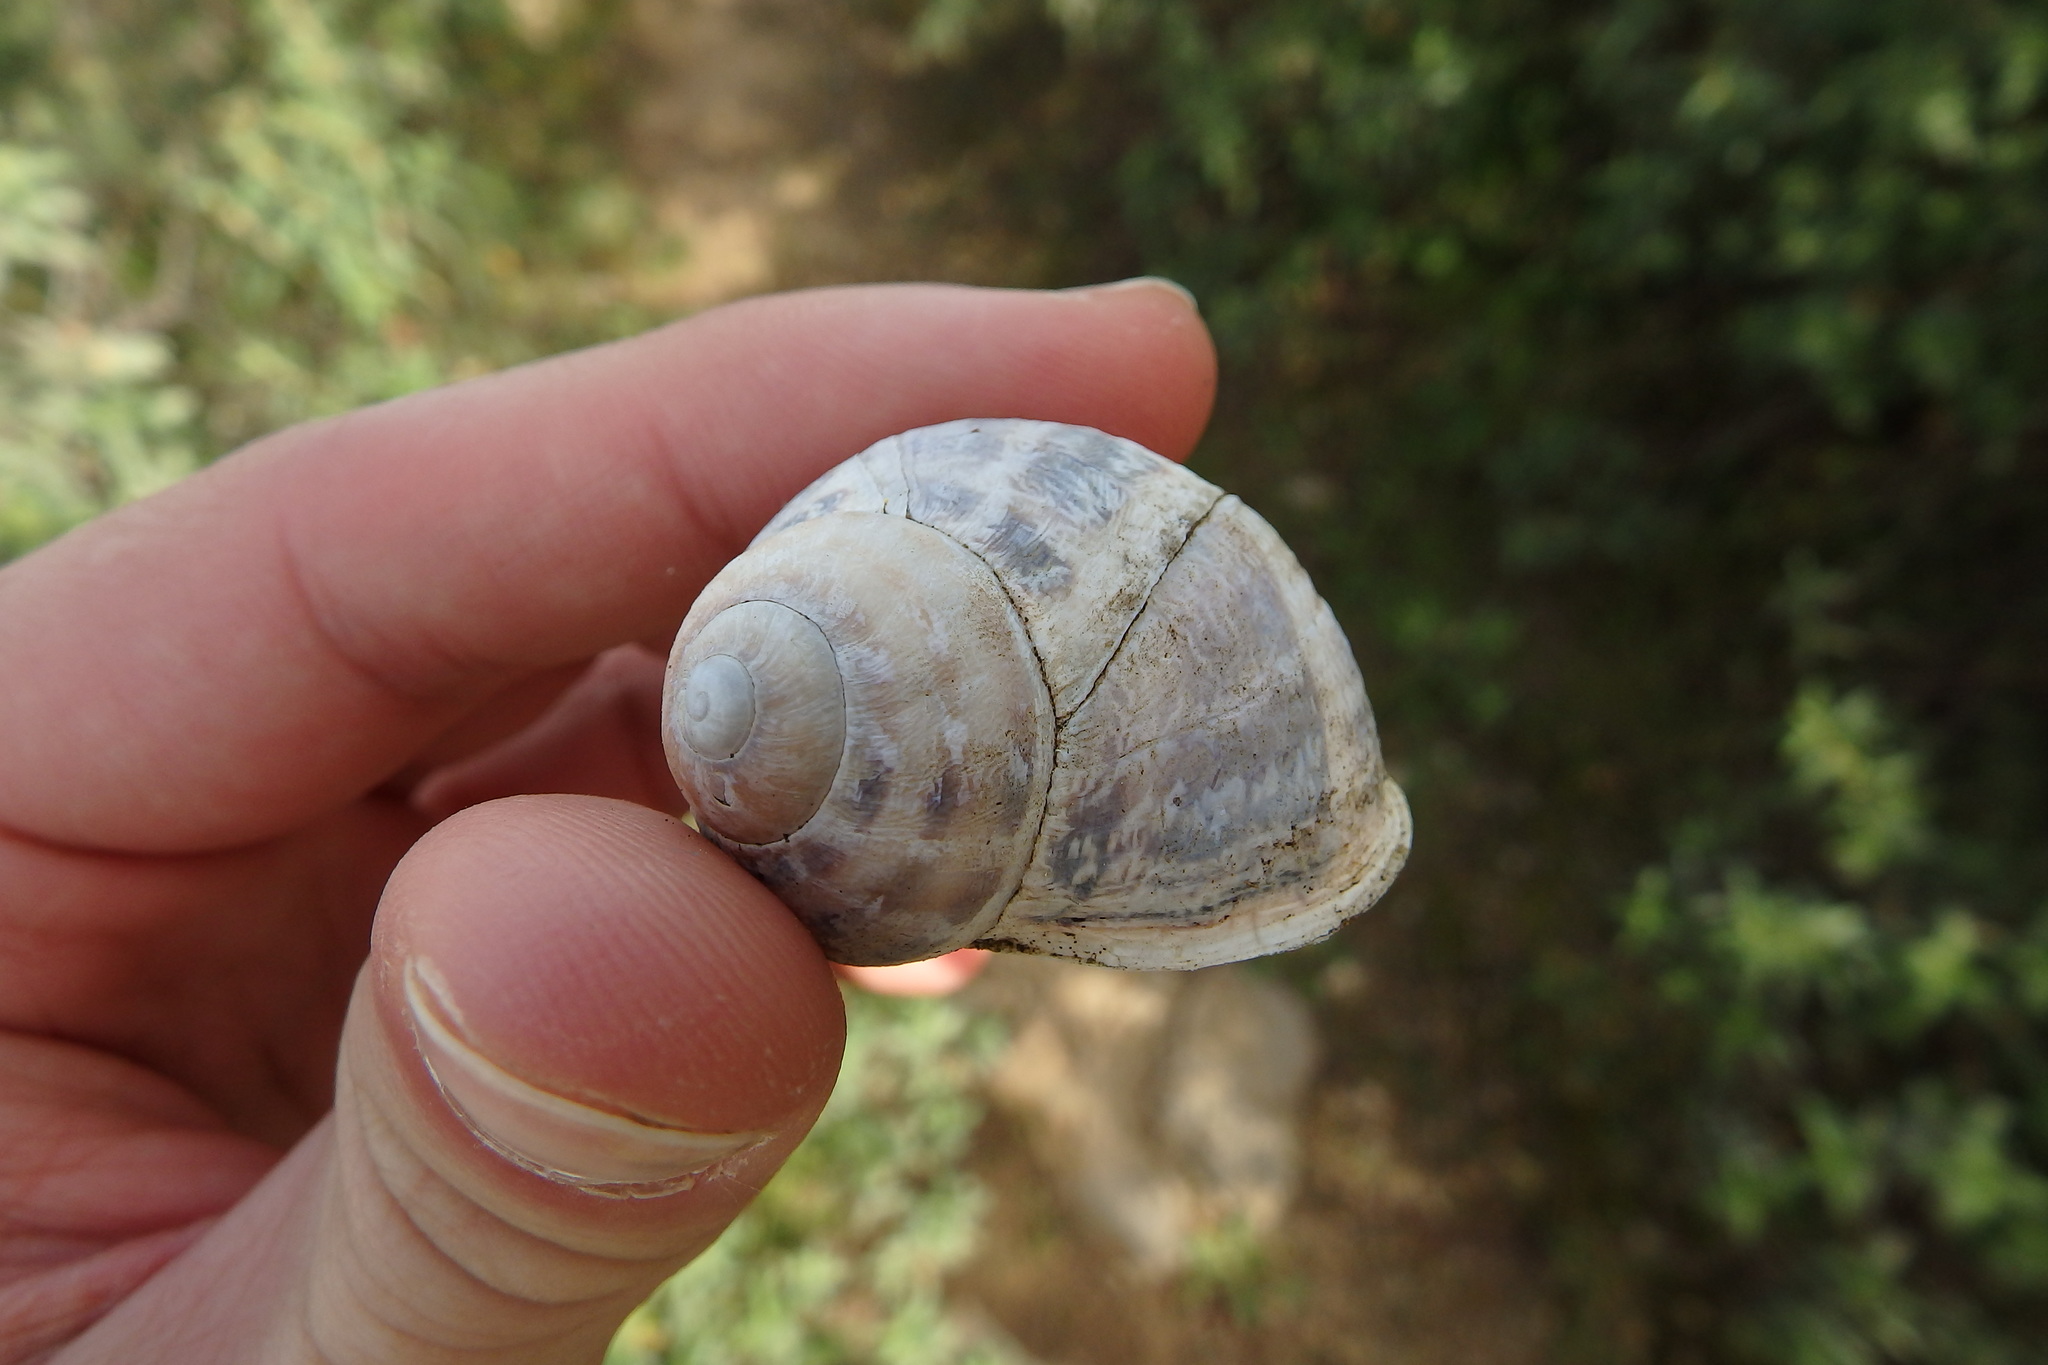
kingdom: Animalia
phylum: Mollusca
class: Gastropoda
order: Stylommatophora
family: Helicidae
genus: Cornu
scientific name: Cornu aspersum
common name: Brown garden snail
